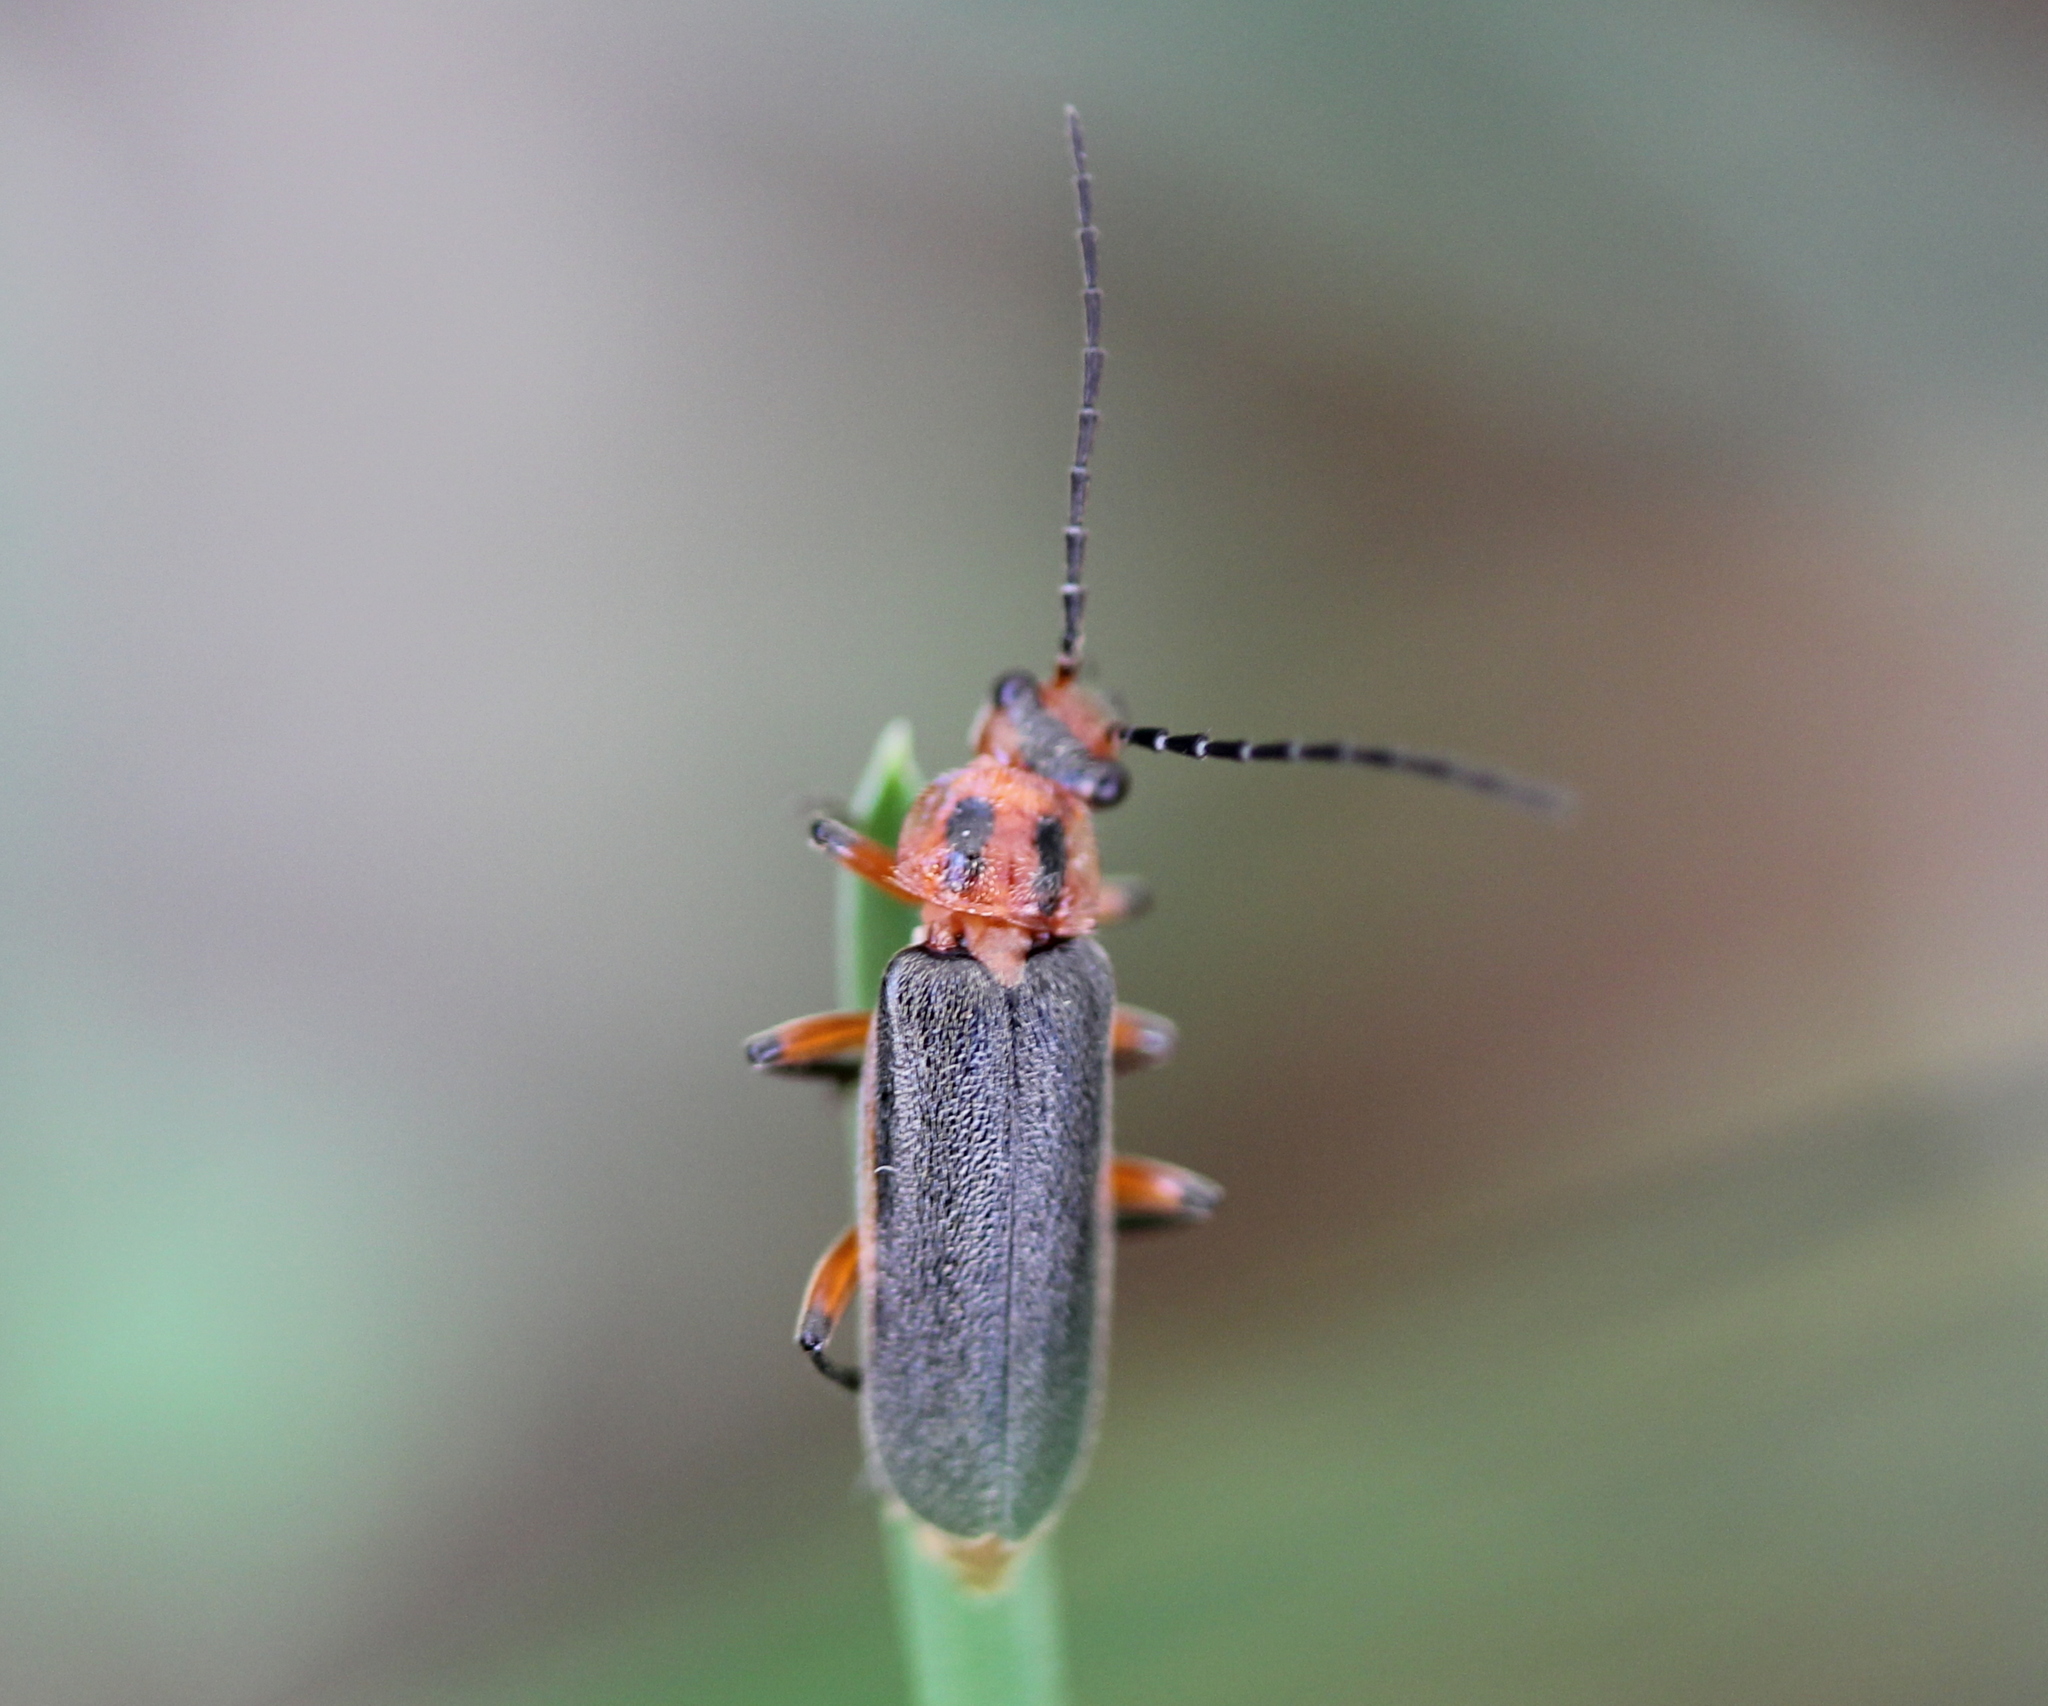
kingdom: Animalia
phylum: Arthropoda
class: Insecta
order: Coleoptera
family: Cantharidae
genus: Atalantycha
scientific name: Atalantycha bilineata
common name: Two-lined leatherwing
